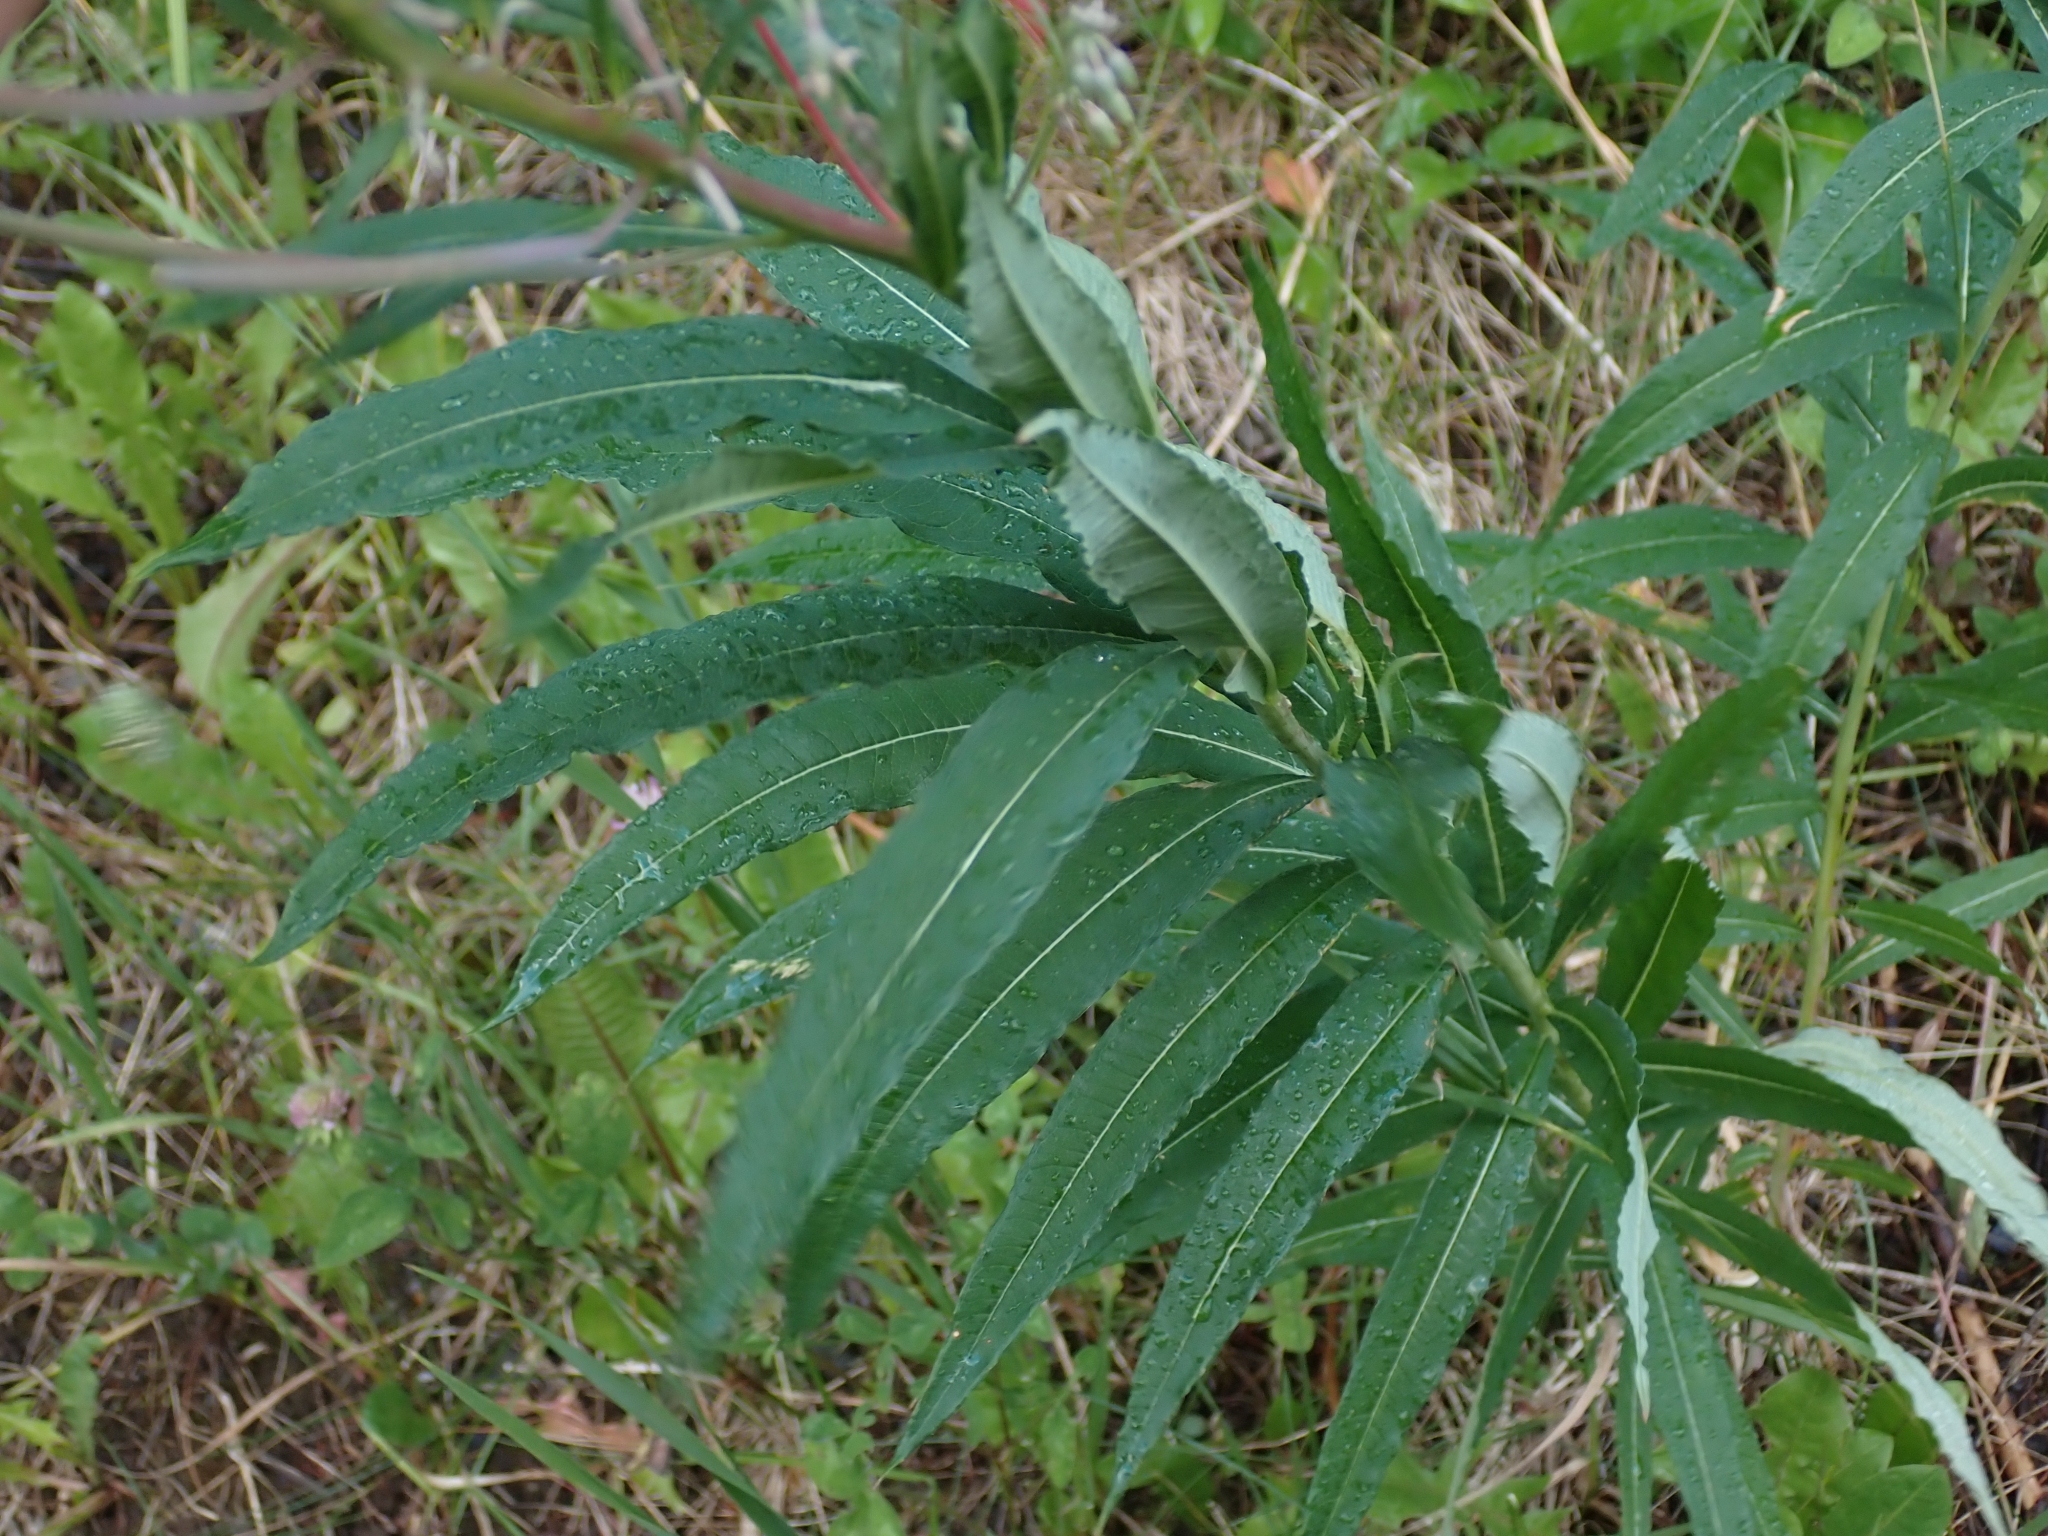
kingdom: Plantae
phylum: Tracheophyta
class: Magnoliopsida
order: Myrtales
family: Onagraceae
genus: Chamaenerion
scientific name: Chamaenerion angustifolium
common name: Fireweed
